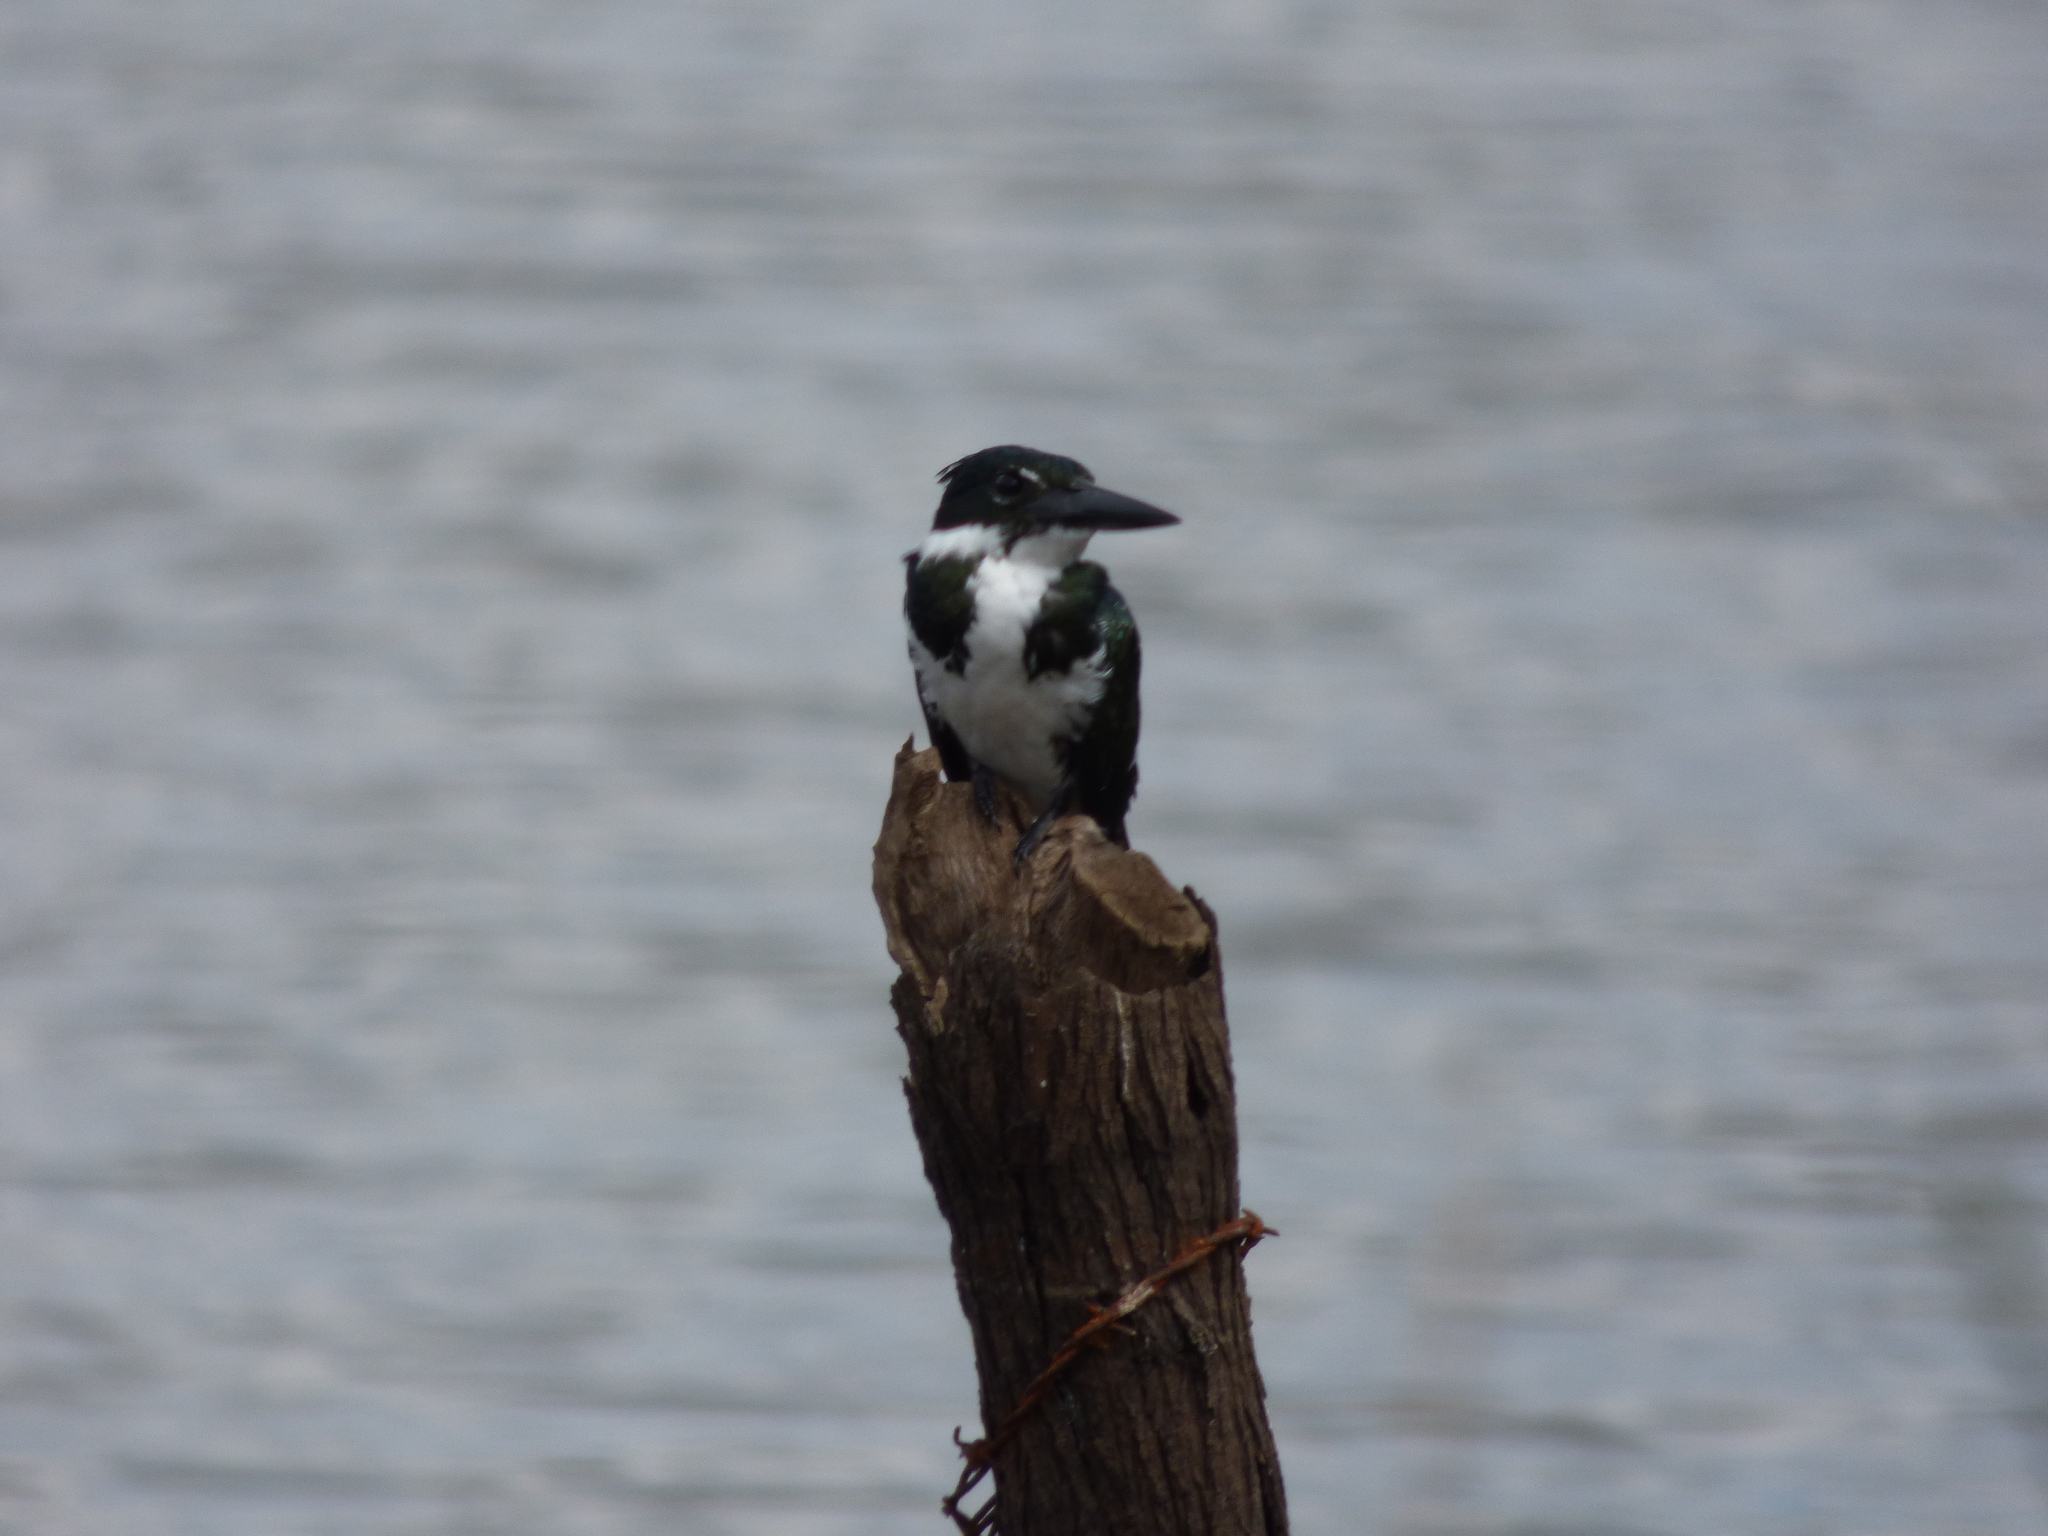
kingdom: Animalia
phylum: Chordata
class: Aves
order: Coraciiformes
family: Alcedinidae
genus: Chloroceryle
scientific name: Chloroceryle amazona
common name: Amazon kingfisher
